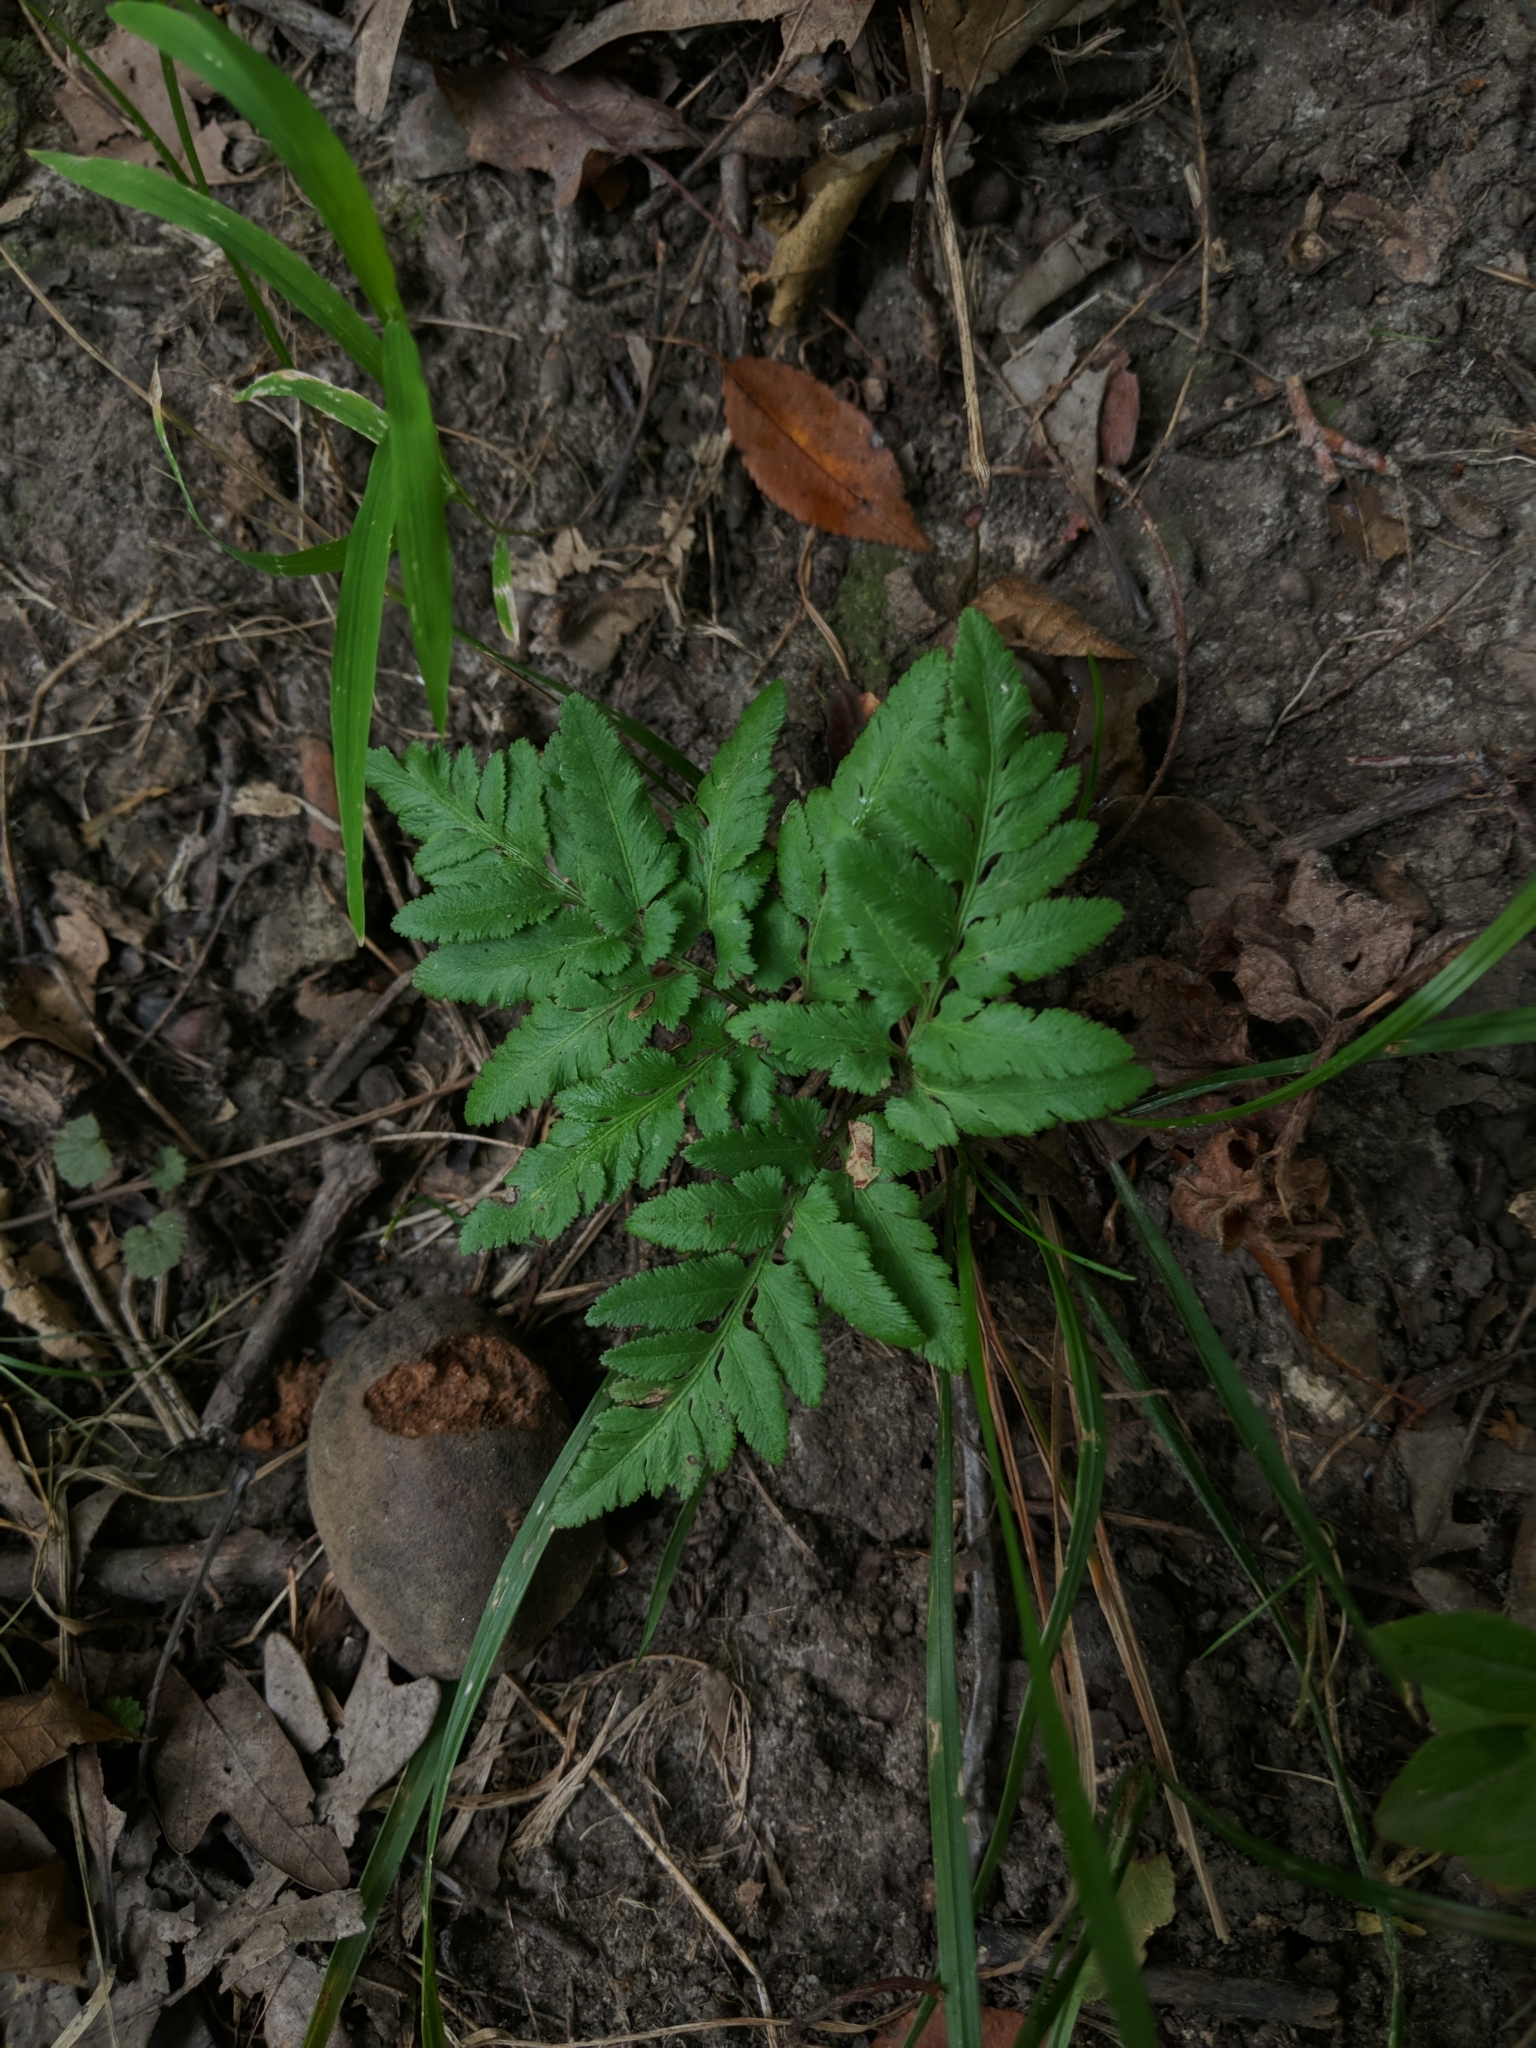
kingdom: Plantae
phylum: Tracheophyta
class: Polypodiopsida
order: Ophioglossales
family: Ophioglossaceae
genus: Sceptridium
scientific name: Sceptridium dissectum
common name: Cut-leaved grapefern
